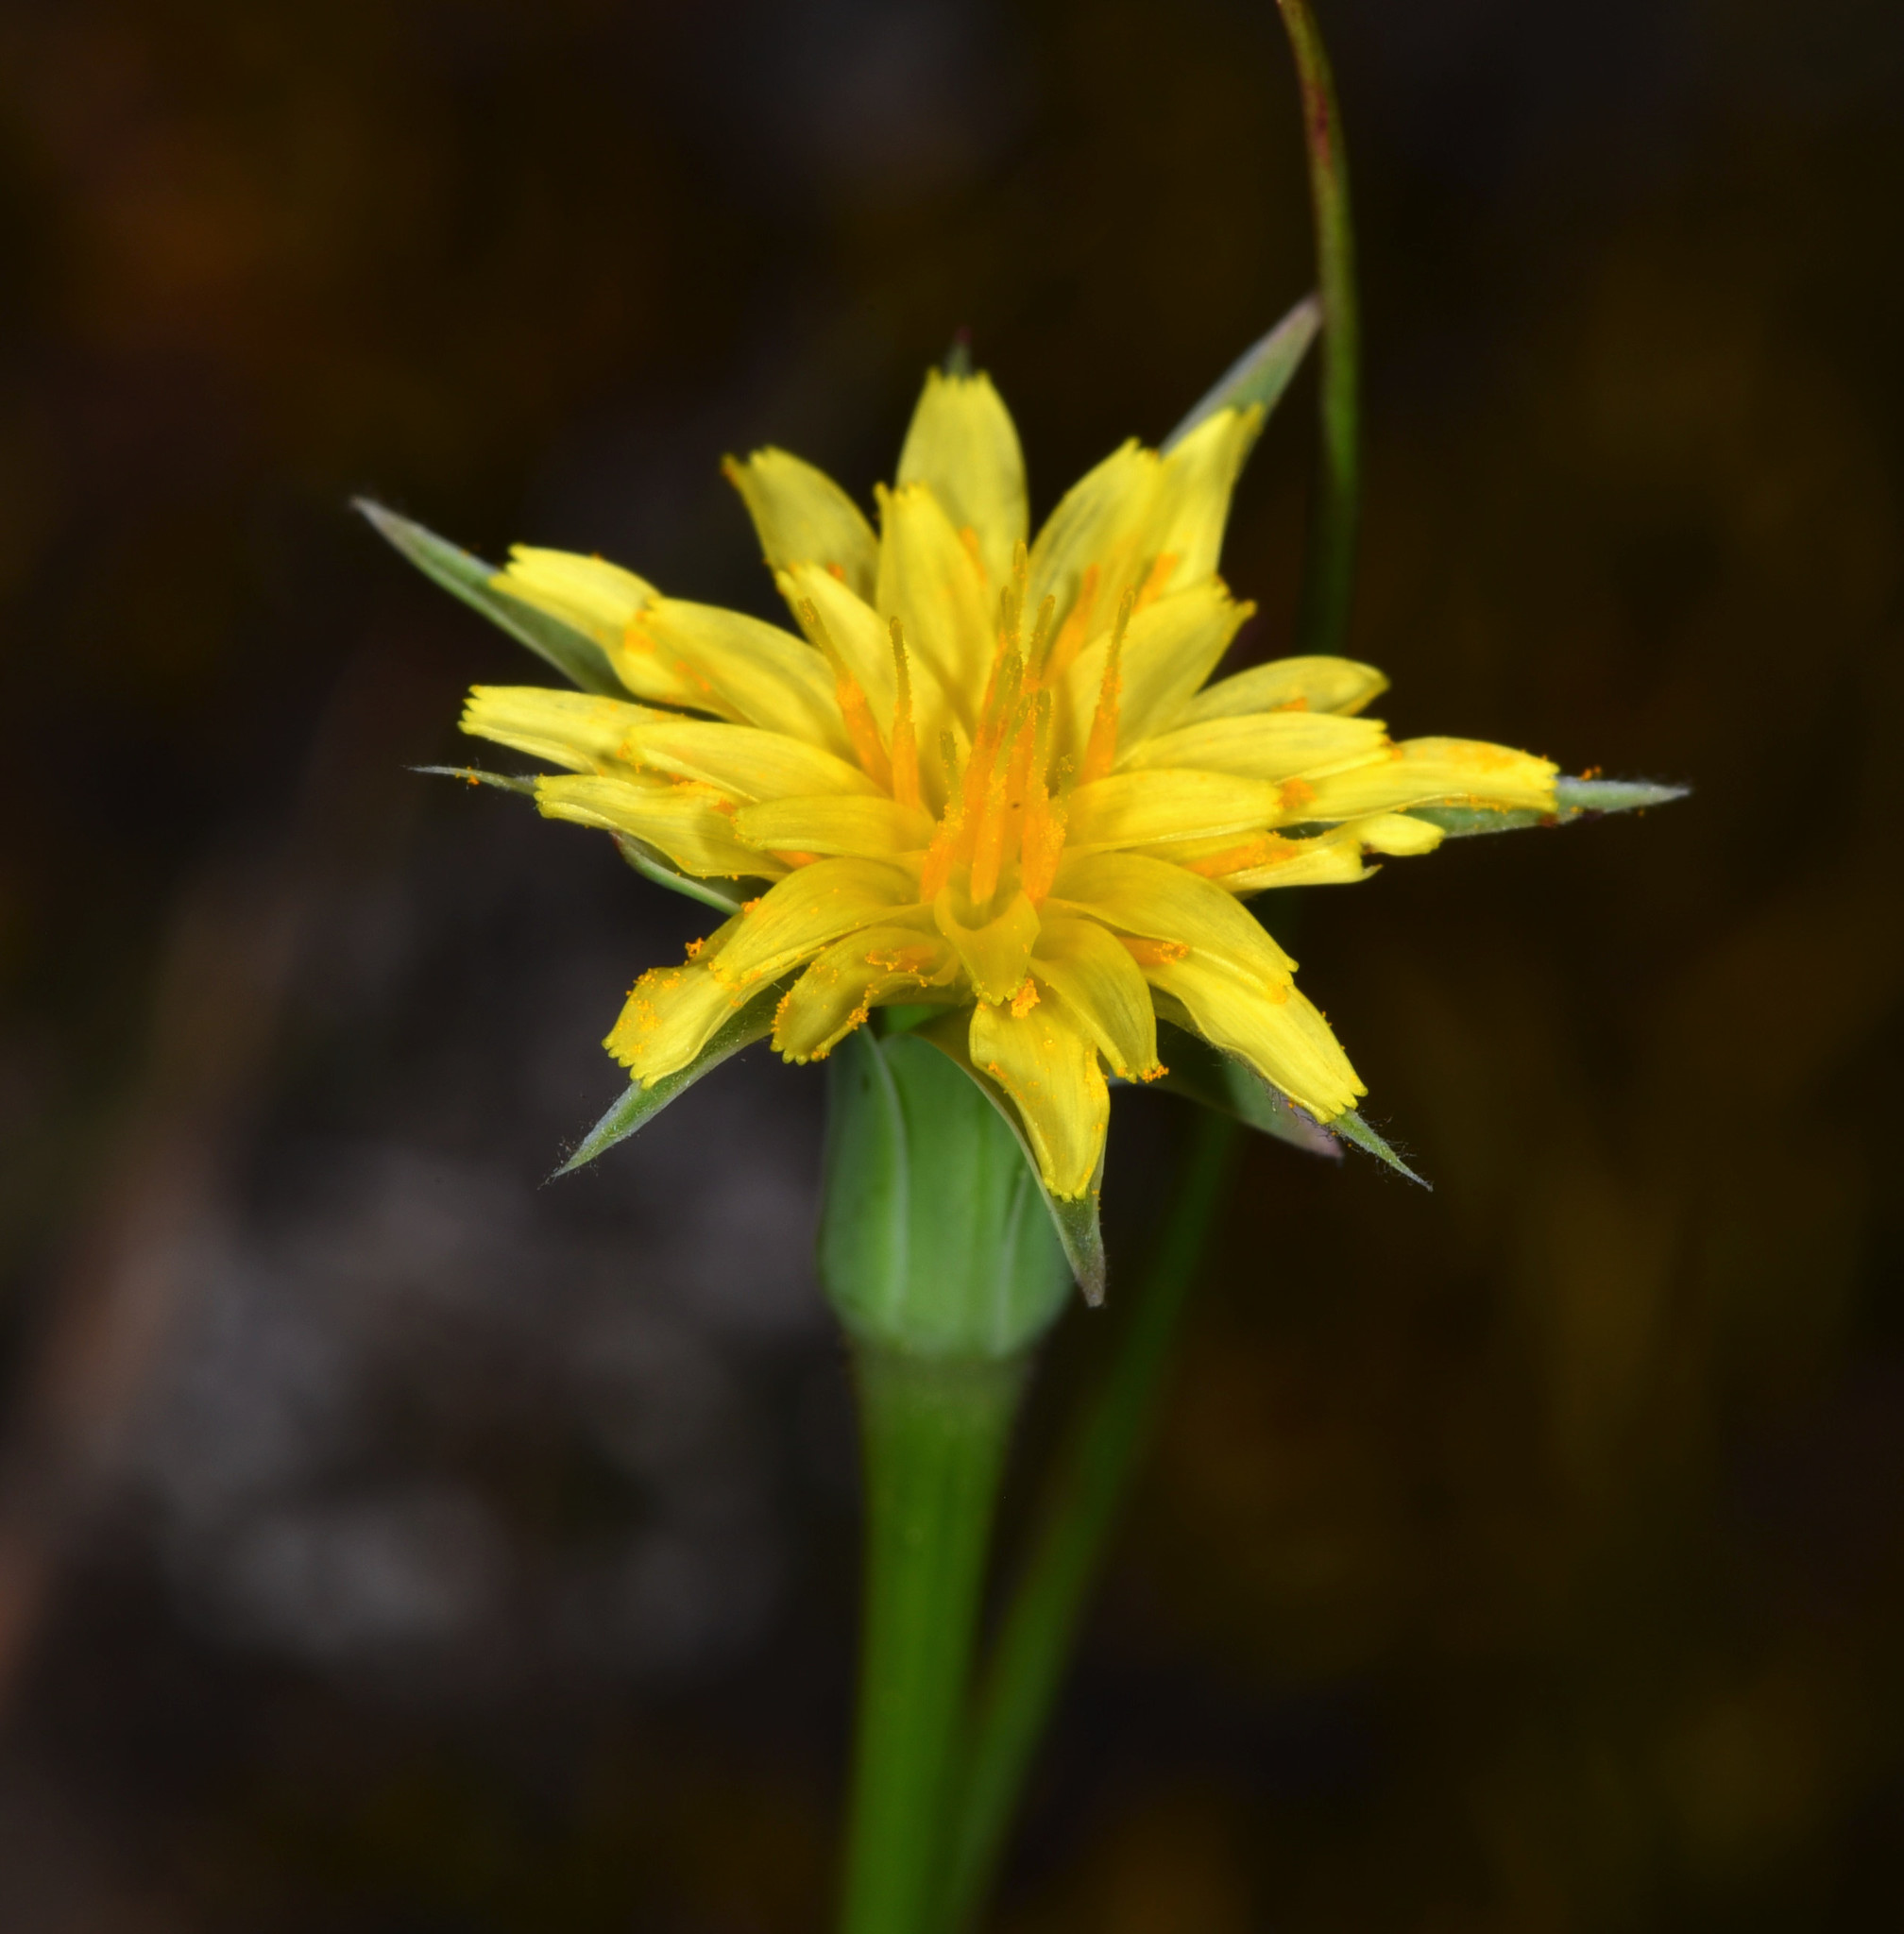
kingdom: Plantae
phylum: Tracheophyta
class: Magnoliopsida
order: Asterales
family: Asteraceae
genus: Microseris
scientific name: Microseris lindleyi
